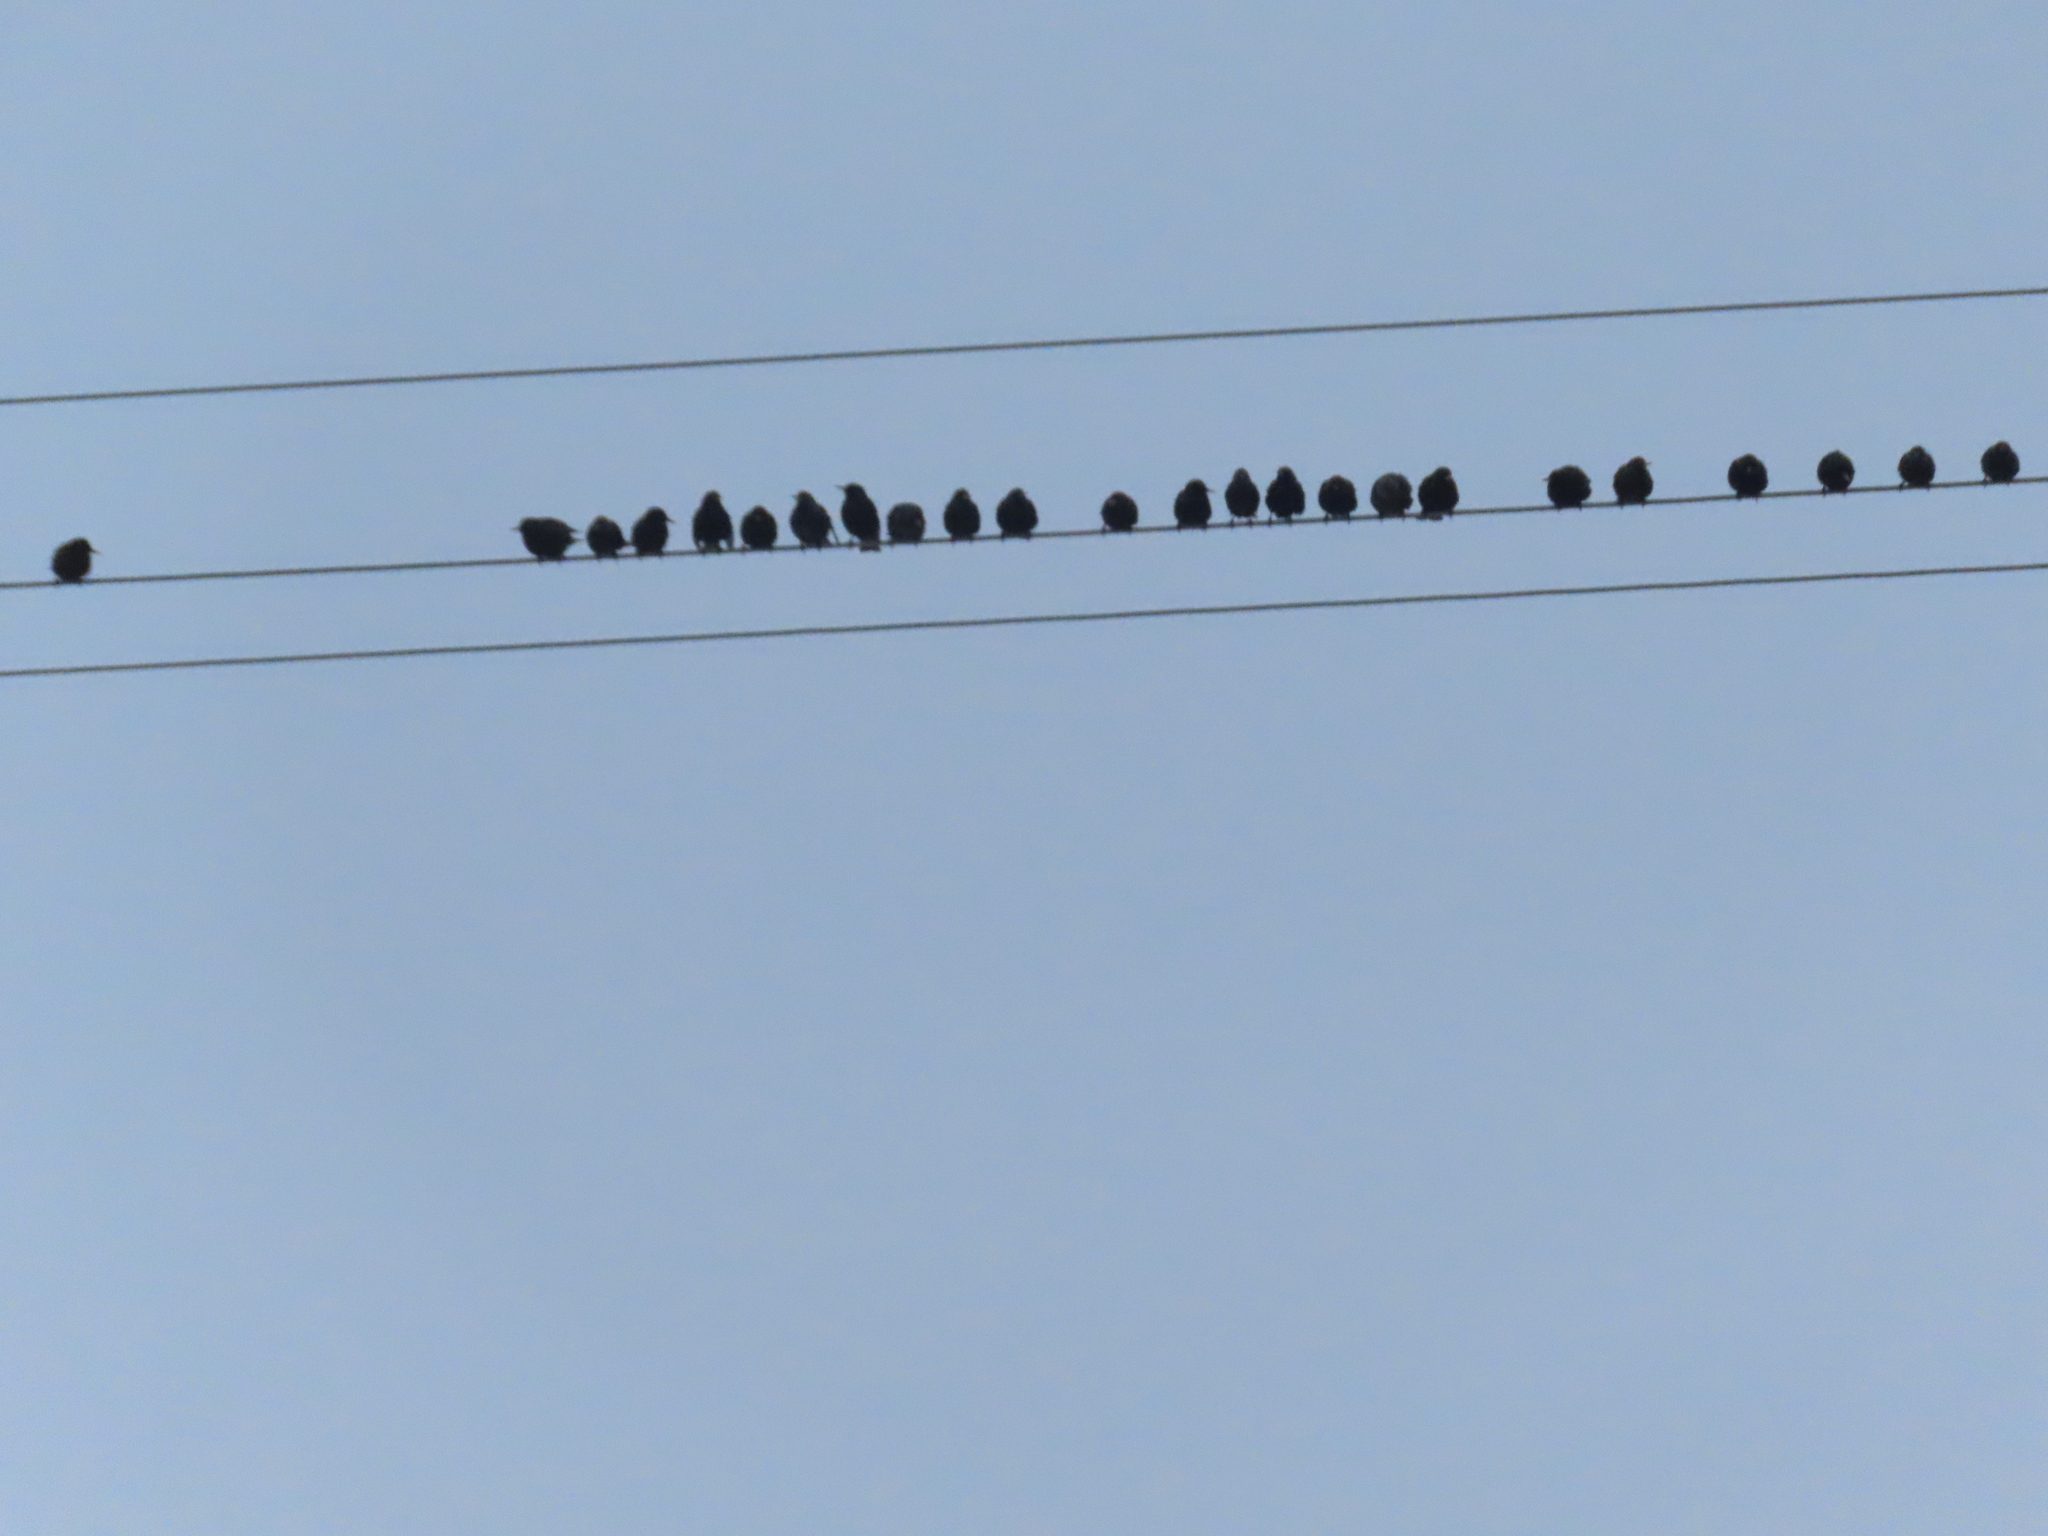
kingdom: Animalia
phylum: Chordata
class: Aves
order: Passeriformes
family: Sturnidae
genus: Sturnus
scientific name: Sturnus vulgaris
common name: Common starling
